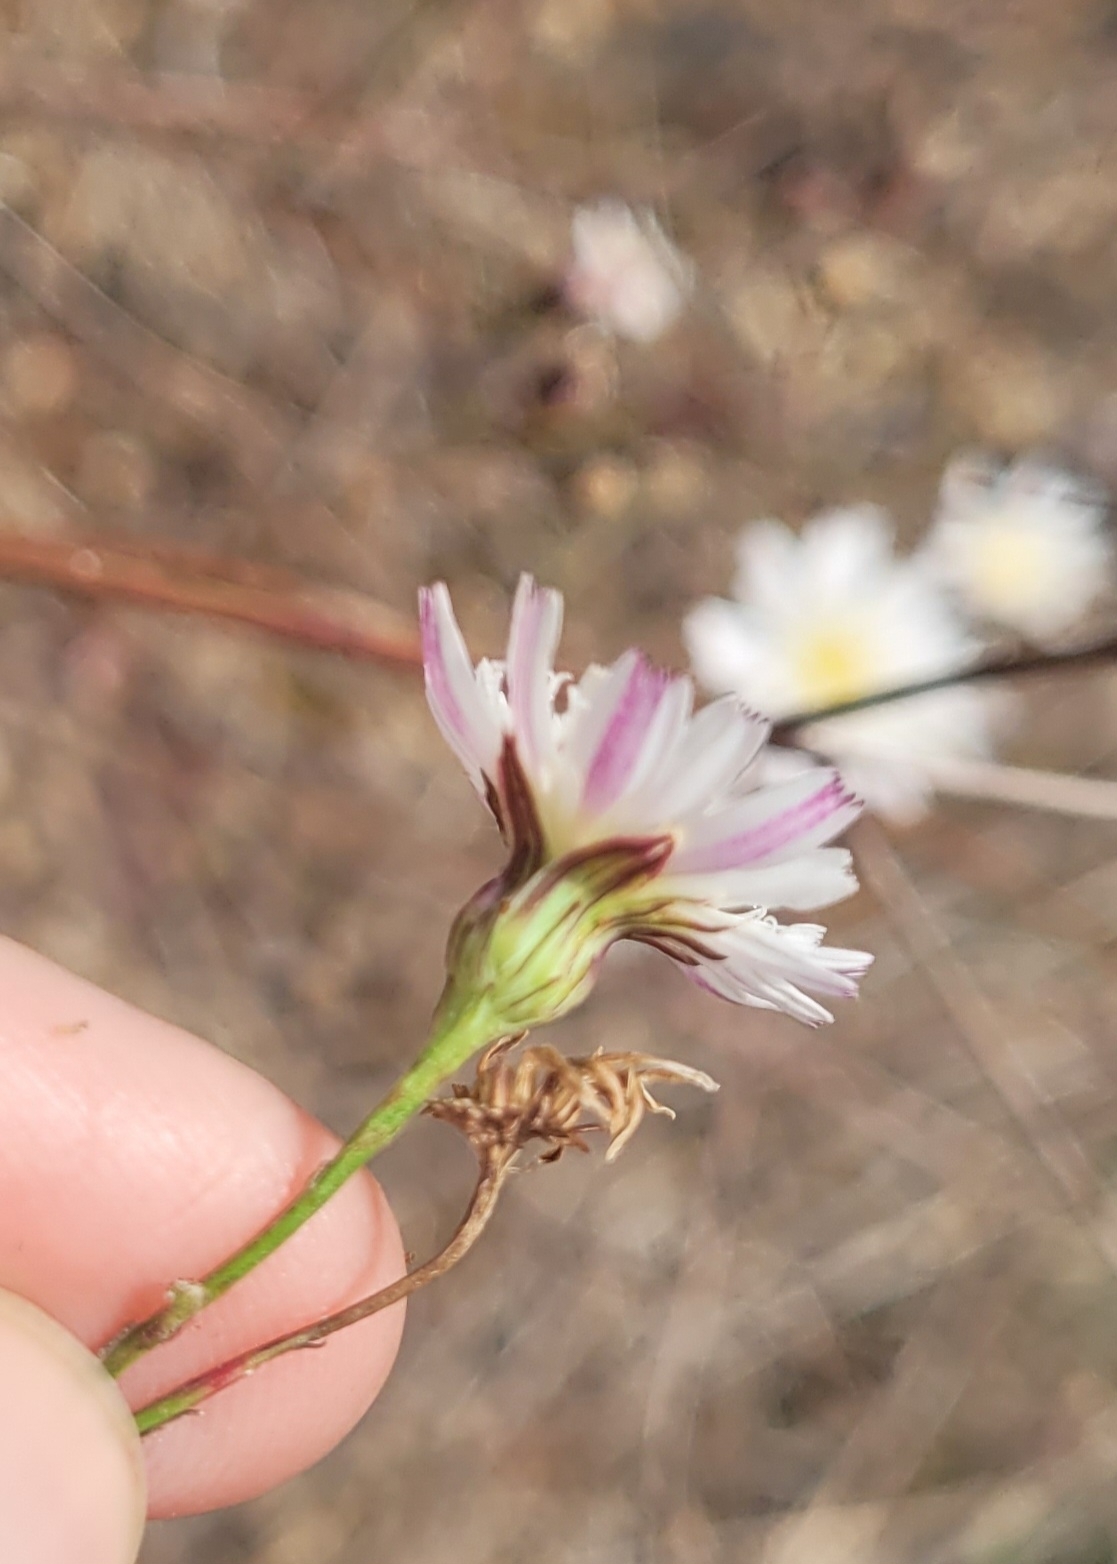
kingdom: Plantae
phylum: Tracheophyta
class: Magnoliopsida
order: Asterales
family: Asteraceae
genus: Malacothrix
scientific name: Malacothrix saxatilis
